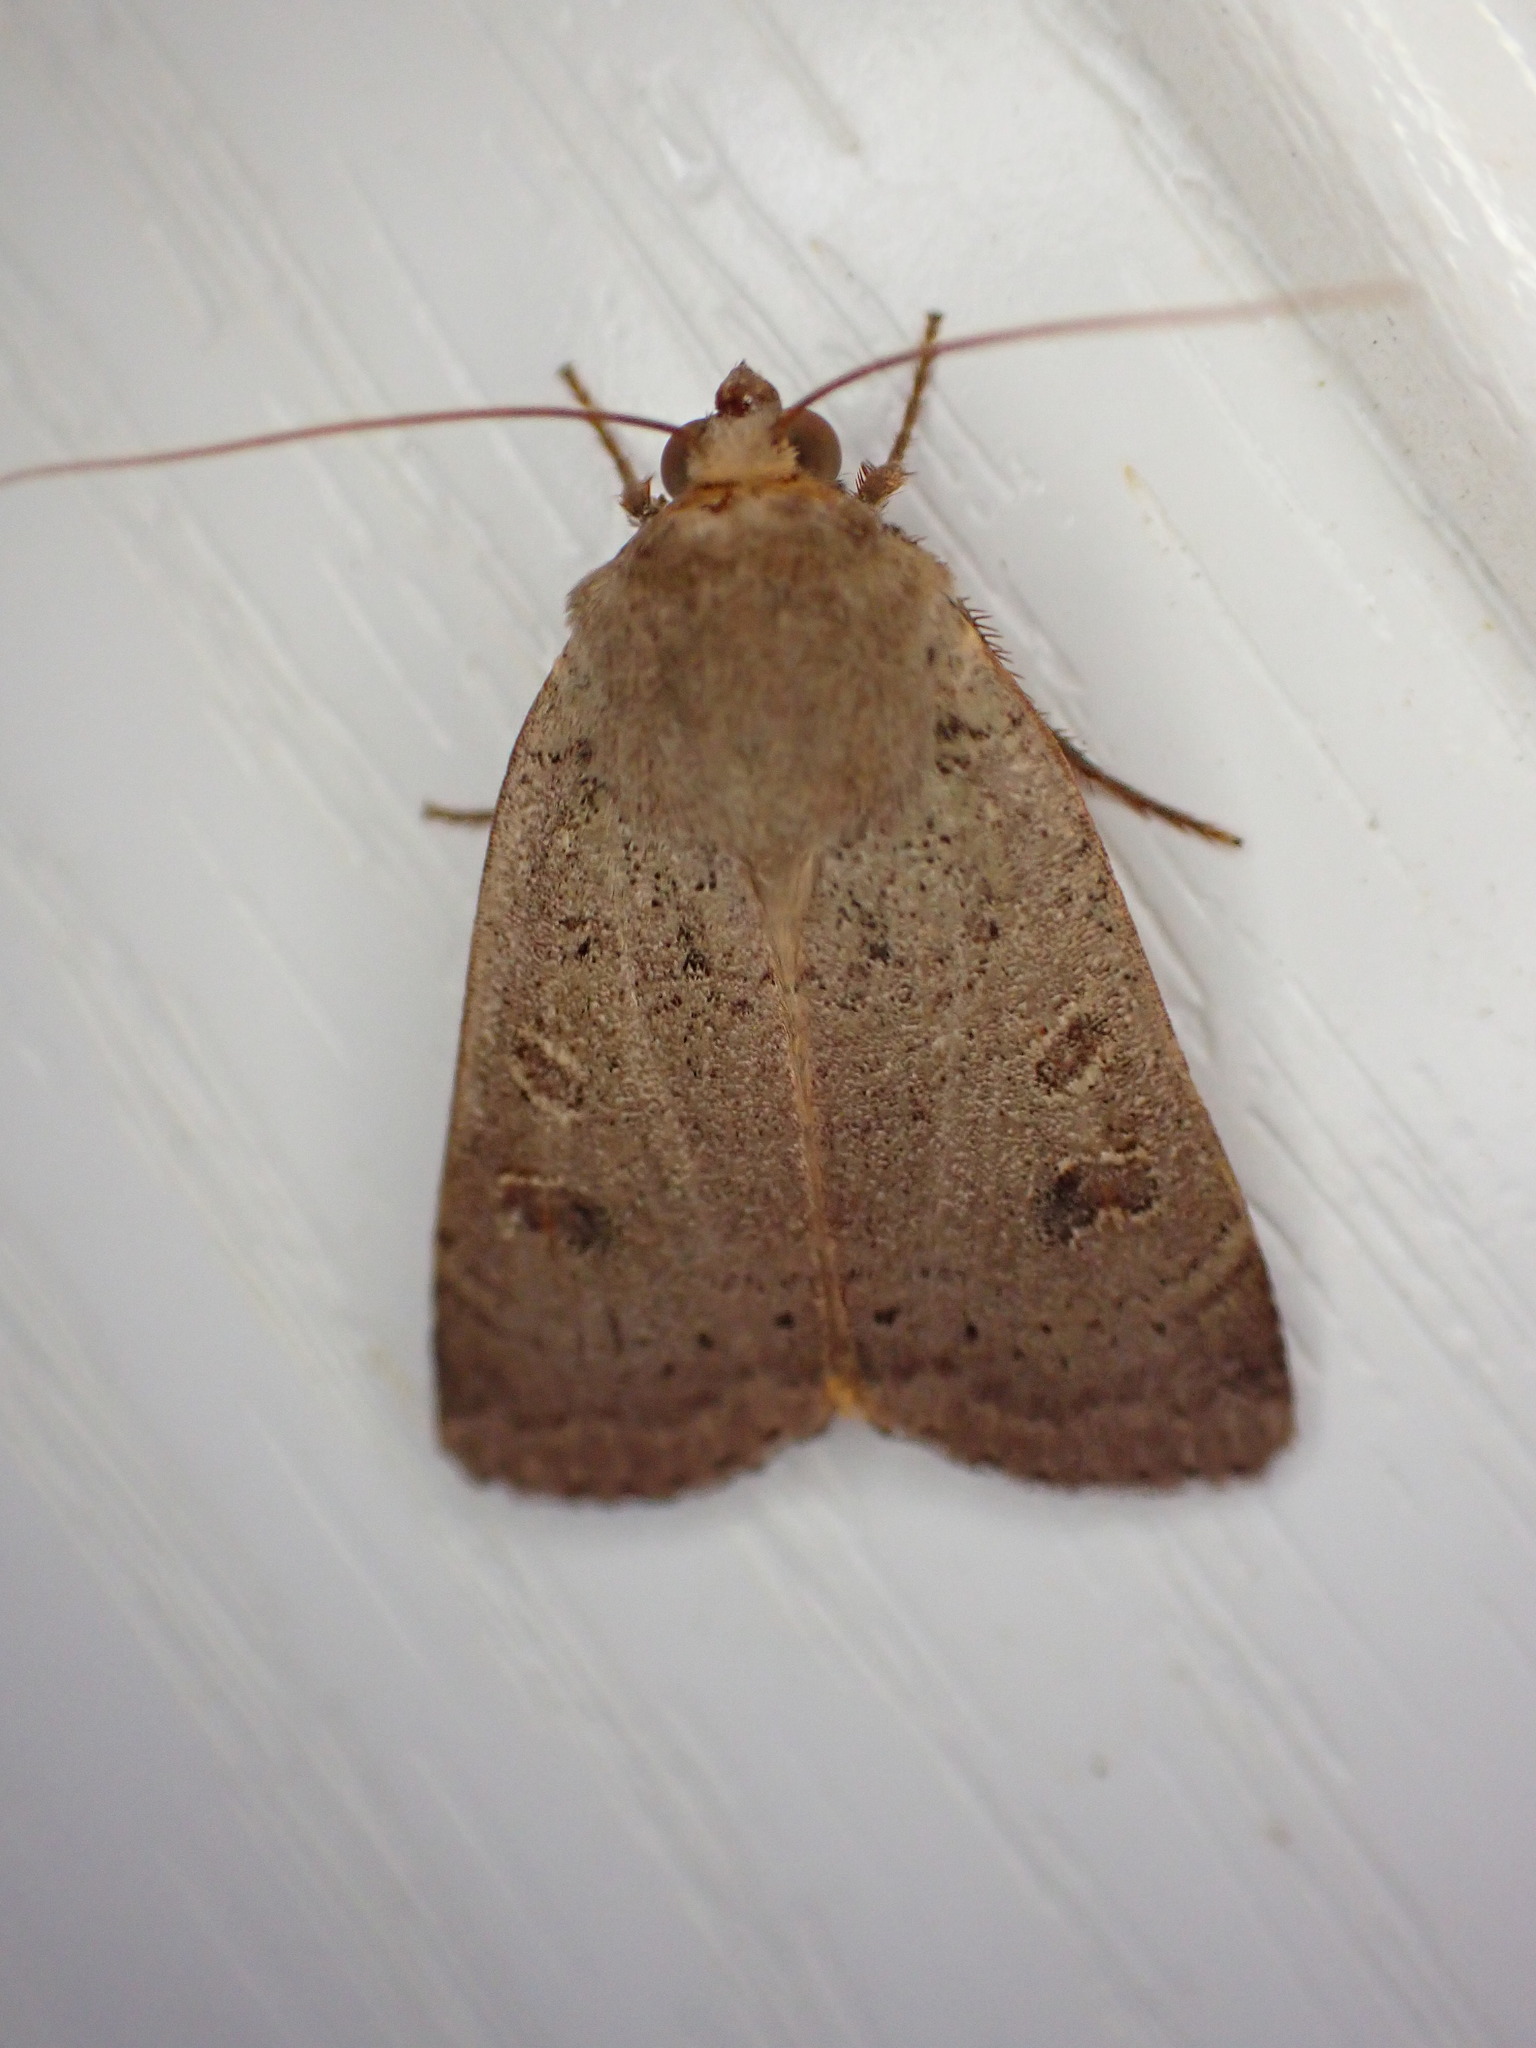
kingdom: Animalia
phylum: Arthropoda
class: Insecta
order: Lepidoptera
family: Noctuidae
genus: Noctua
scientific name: Noctua comes
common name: Lesser yellow underwing
